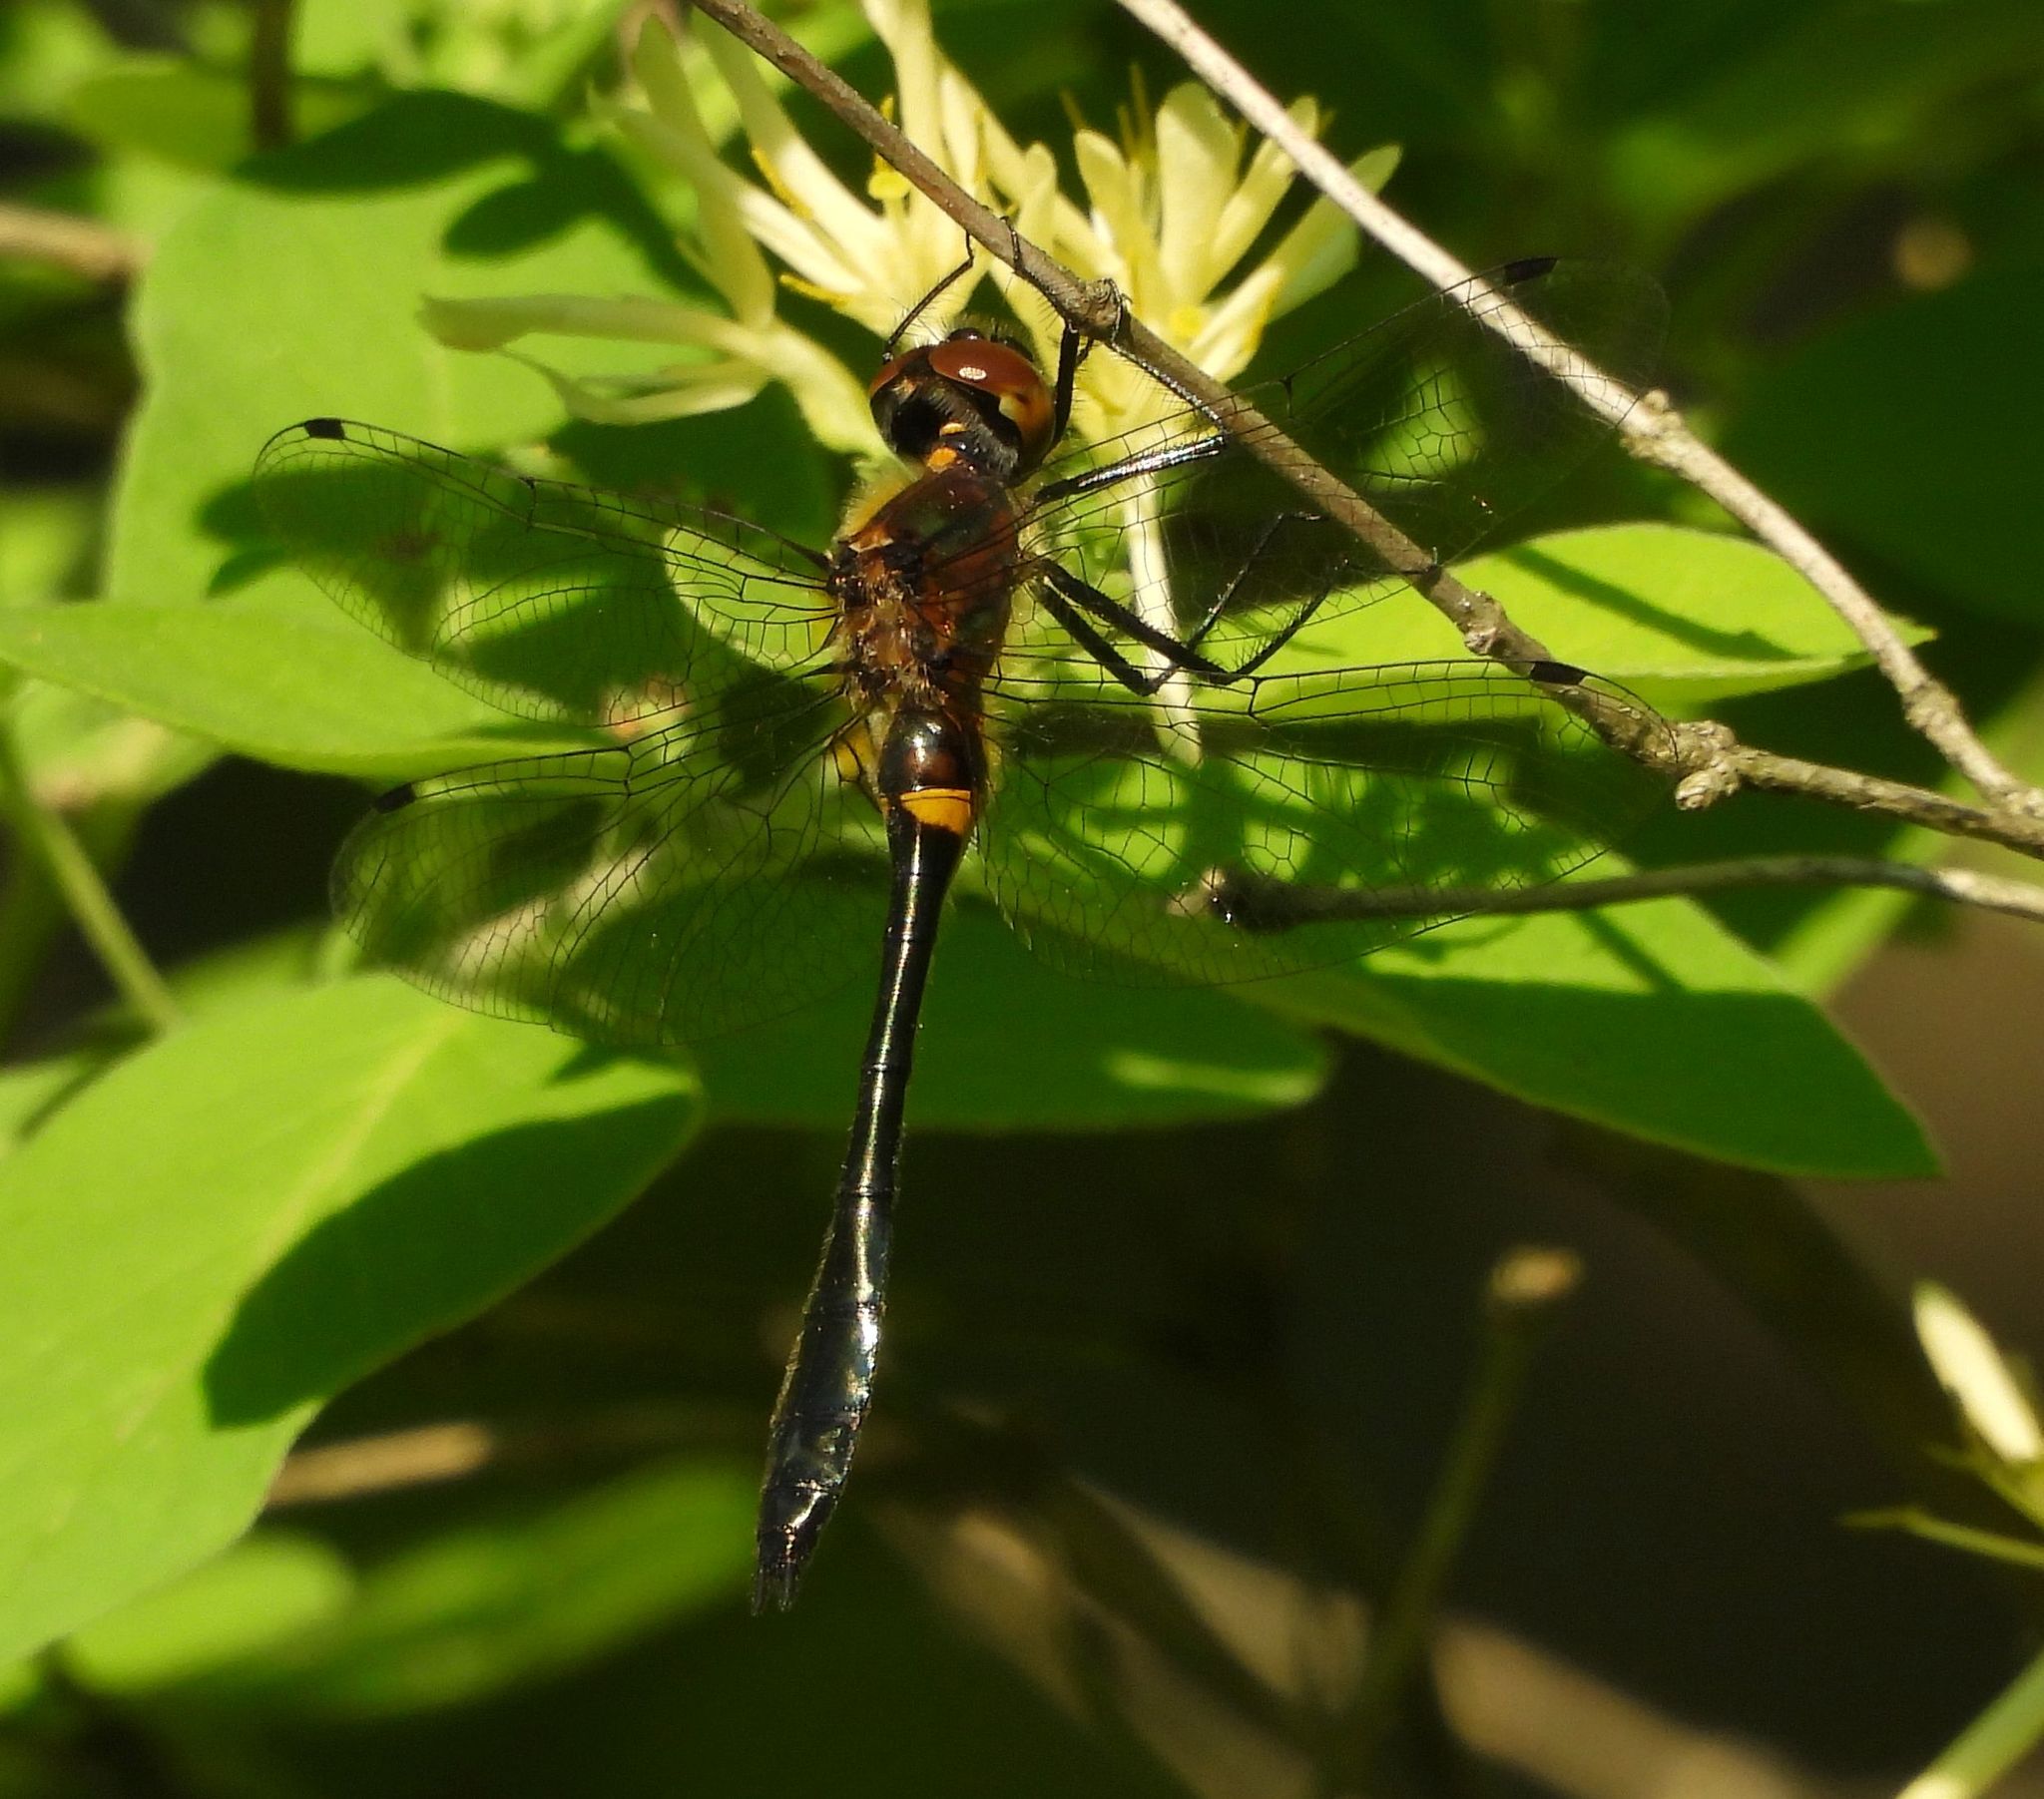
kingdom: Animalia
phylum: Arthropoda
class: Insecta
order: Odonata
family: Corduliidae
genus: Dorocordulia
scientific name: Dorocordulia libera
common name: Racket-tailed emerald
